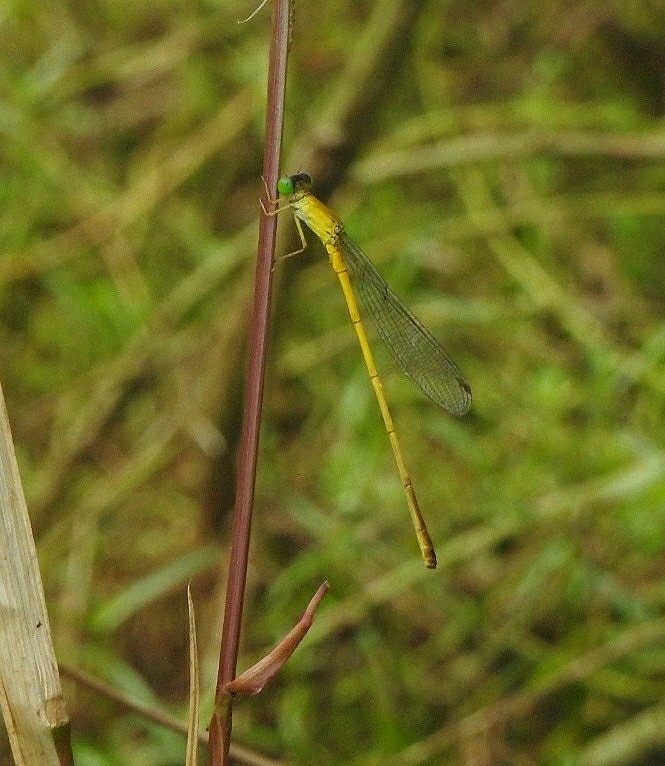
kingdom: Animalia
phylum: Arthropoda
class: Insecta
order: Odonata
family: Coenagrionidae
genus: Ceriagrion
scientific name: Ceriagrion chromothorax
